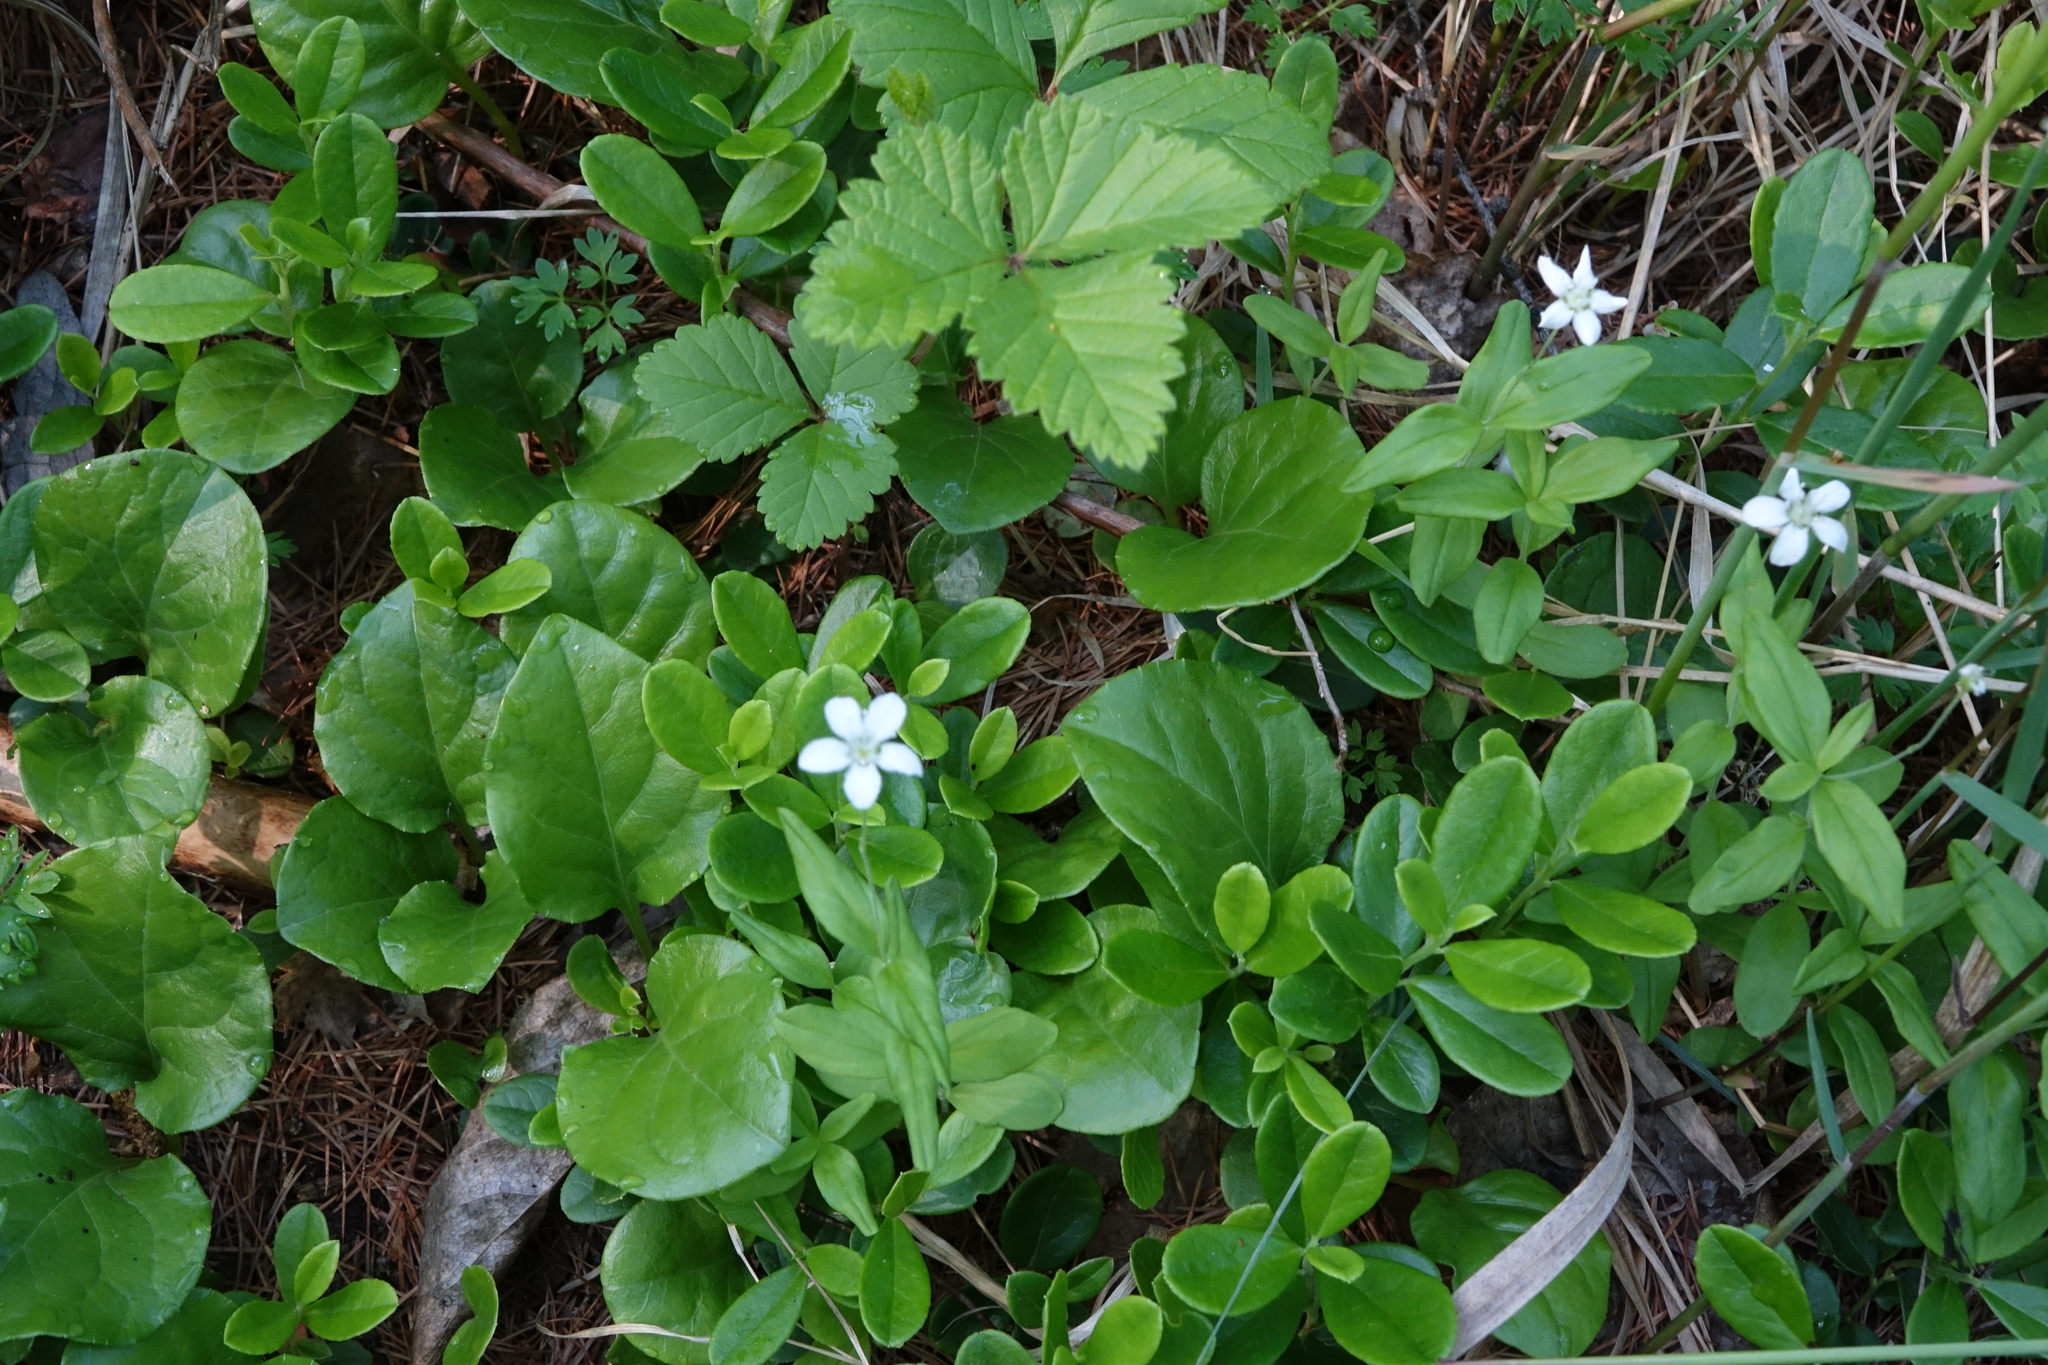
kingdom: Plantae
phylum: Tracheophyta
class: Magnoliopsida
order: Rosales
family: Rosaceae
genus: Rubus
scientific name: Rubus arcticus
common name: Arctic bramble
